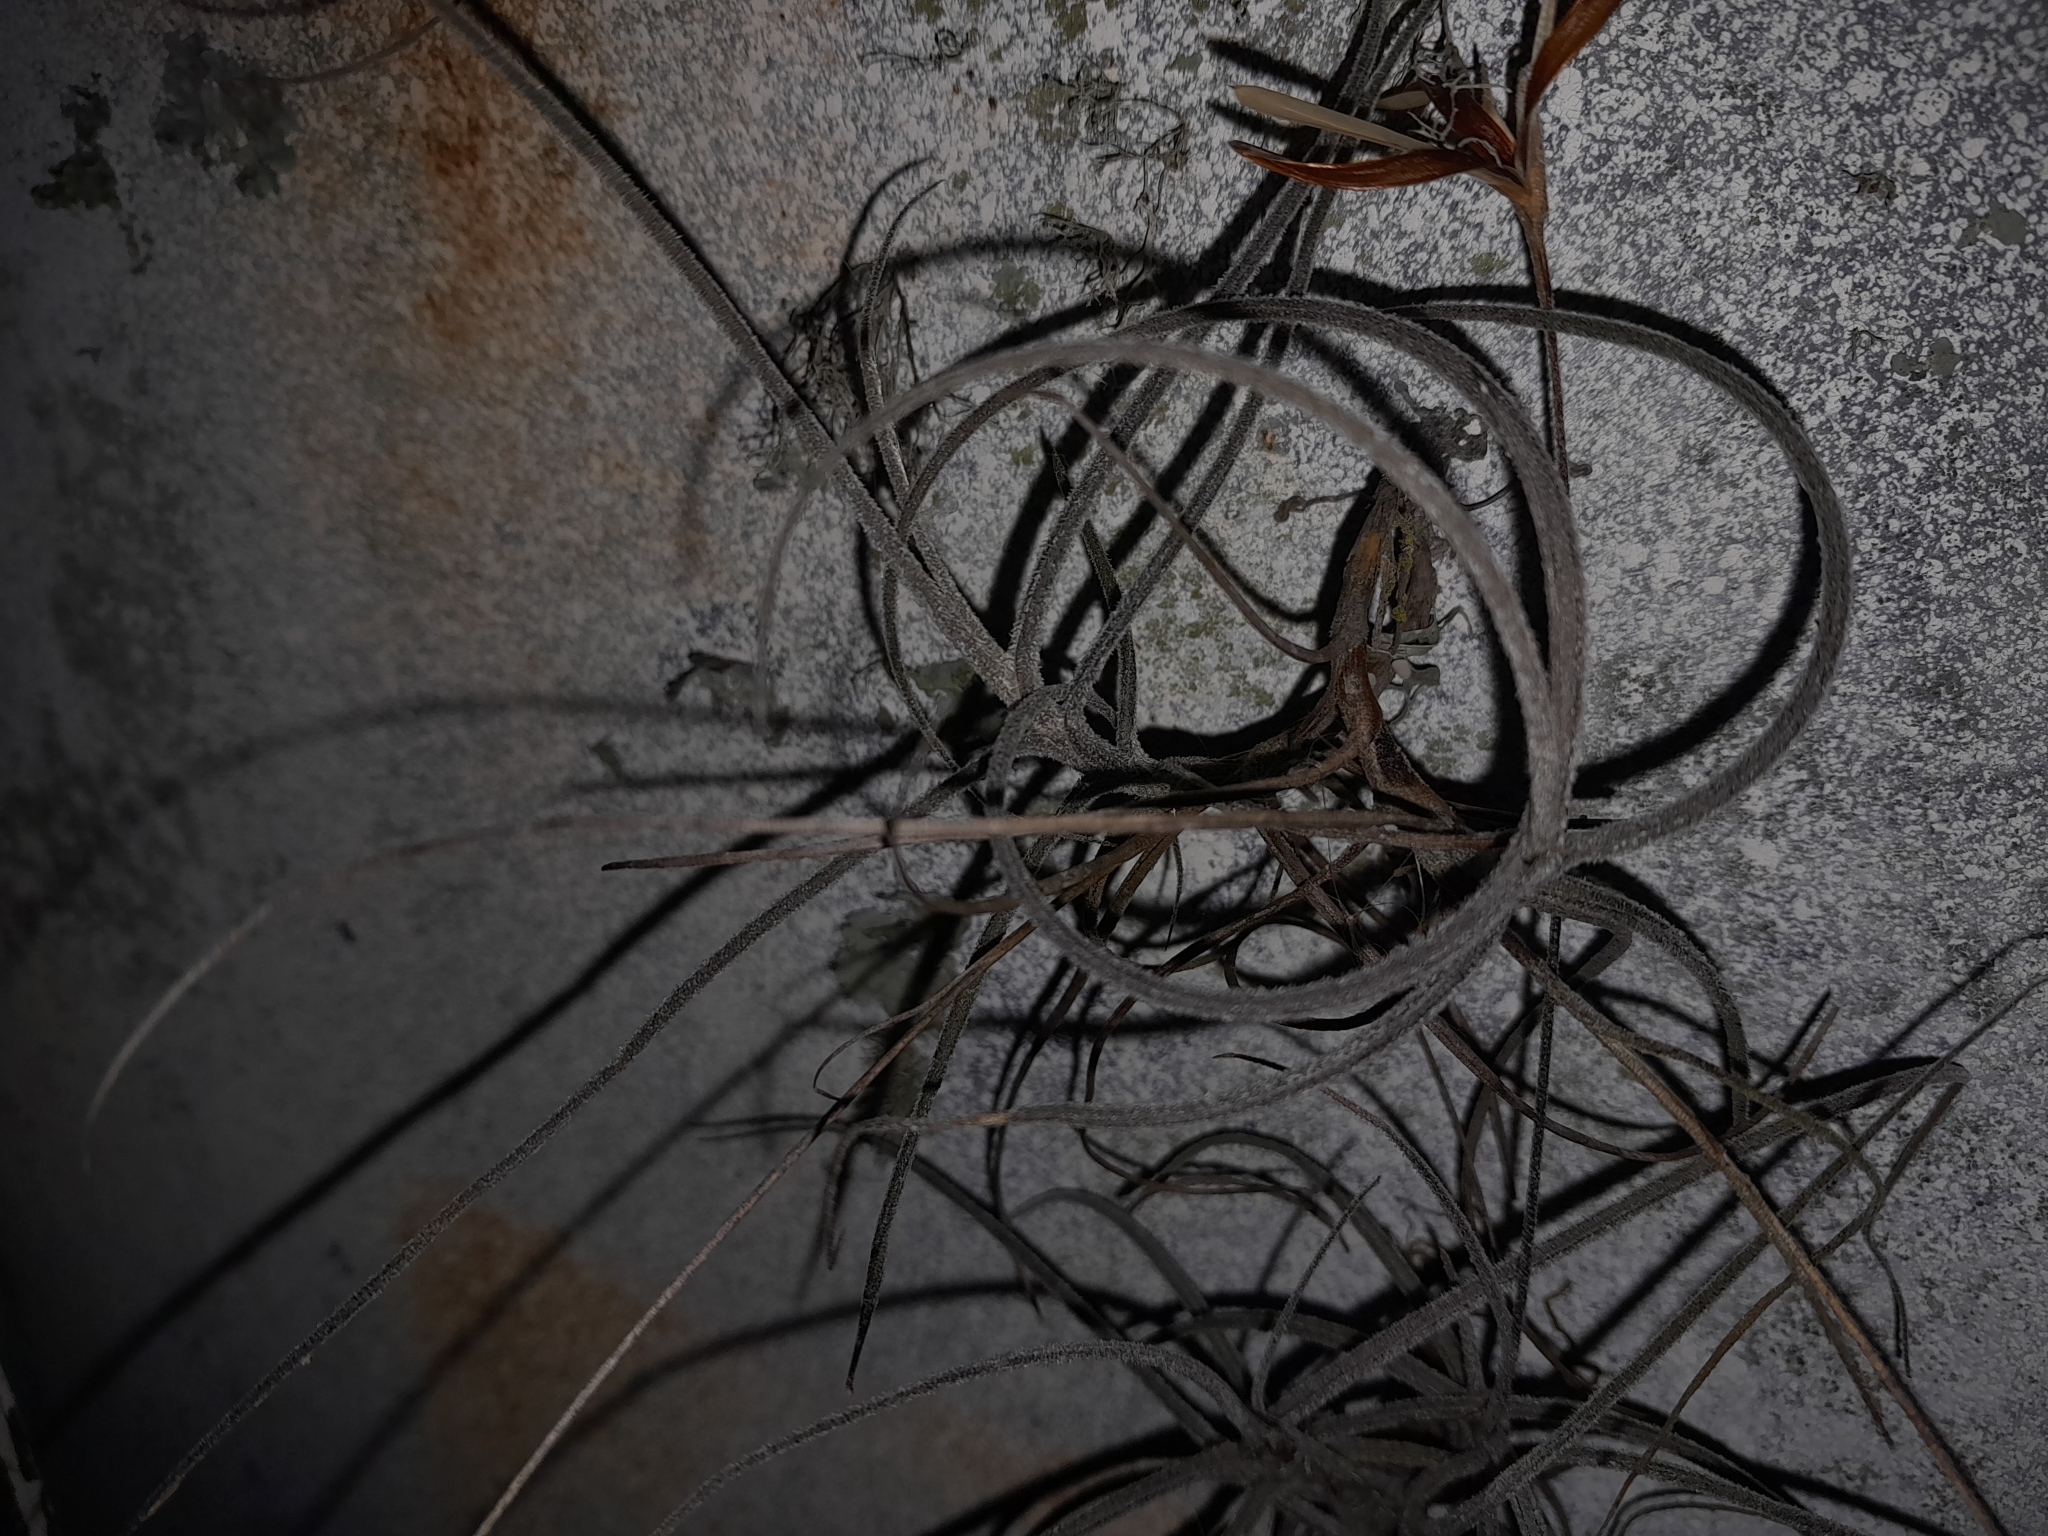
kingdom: Plantae
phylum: Tracheophyta
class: Liliopsida
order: Poales
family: Bromeliaceae
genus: Tillandsia
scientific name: Tillandsia recurvata
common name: Small ballmoss
